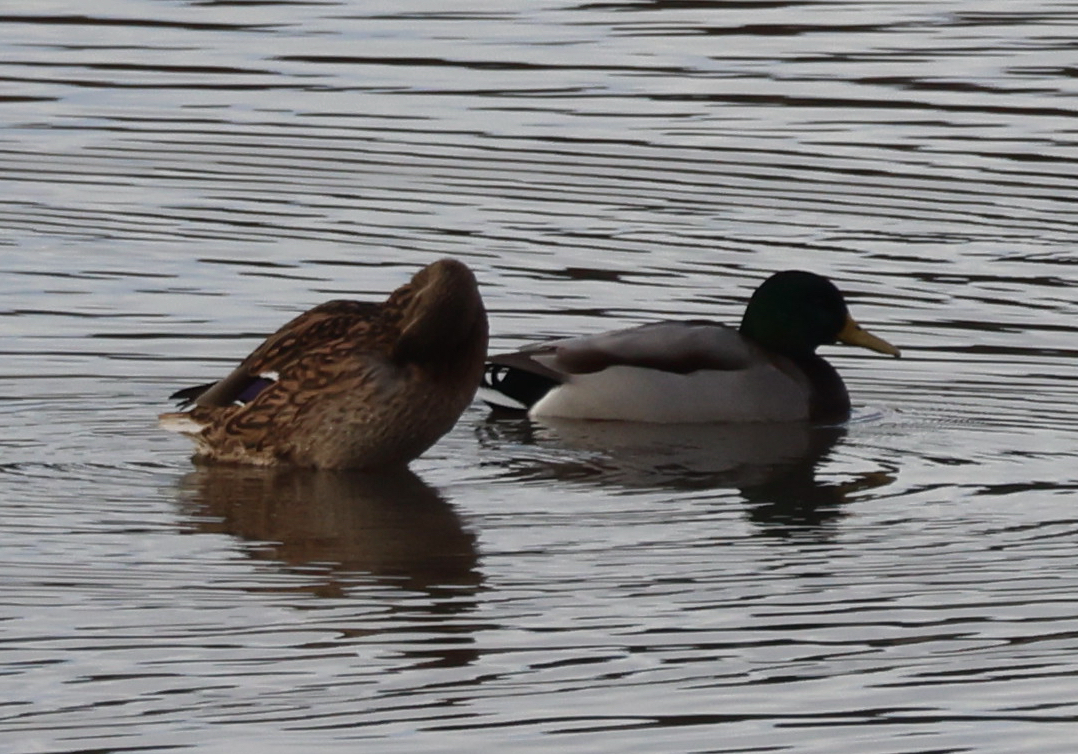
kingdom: Animalia
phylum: Chordata
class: Aves
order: Anseriformes
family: Anatidae
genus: Anas
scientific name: Anas platyrhynchos
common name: Mallard
